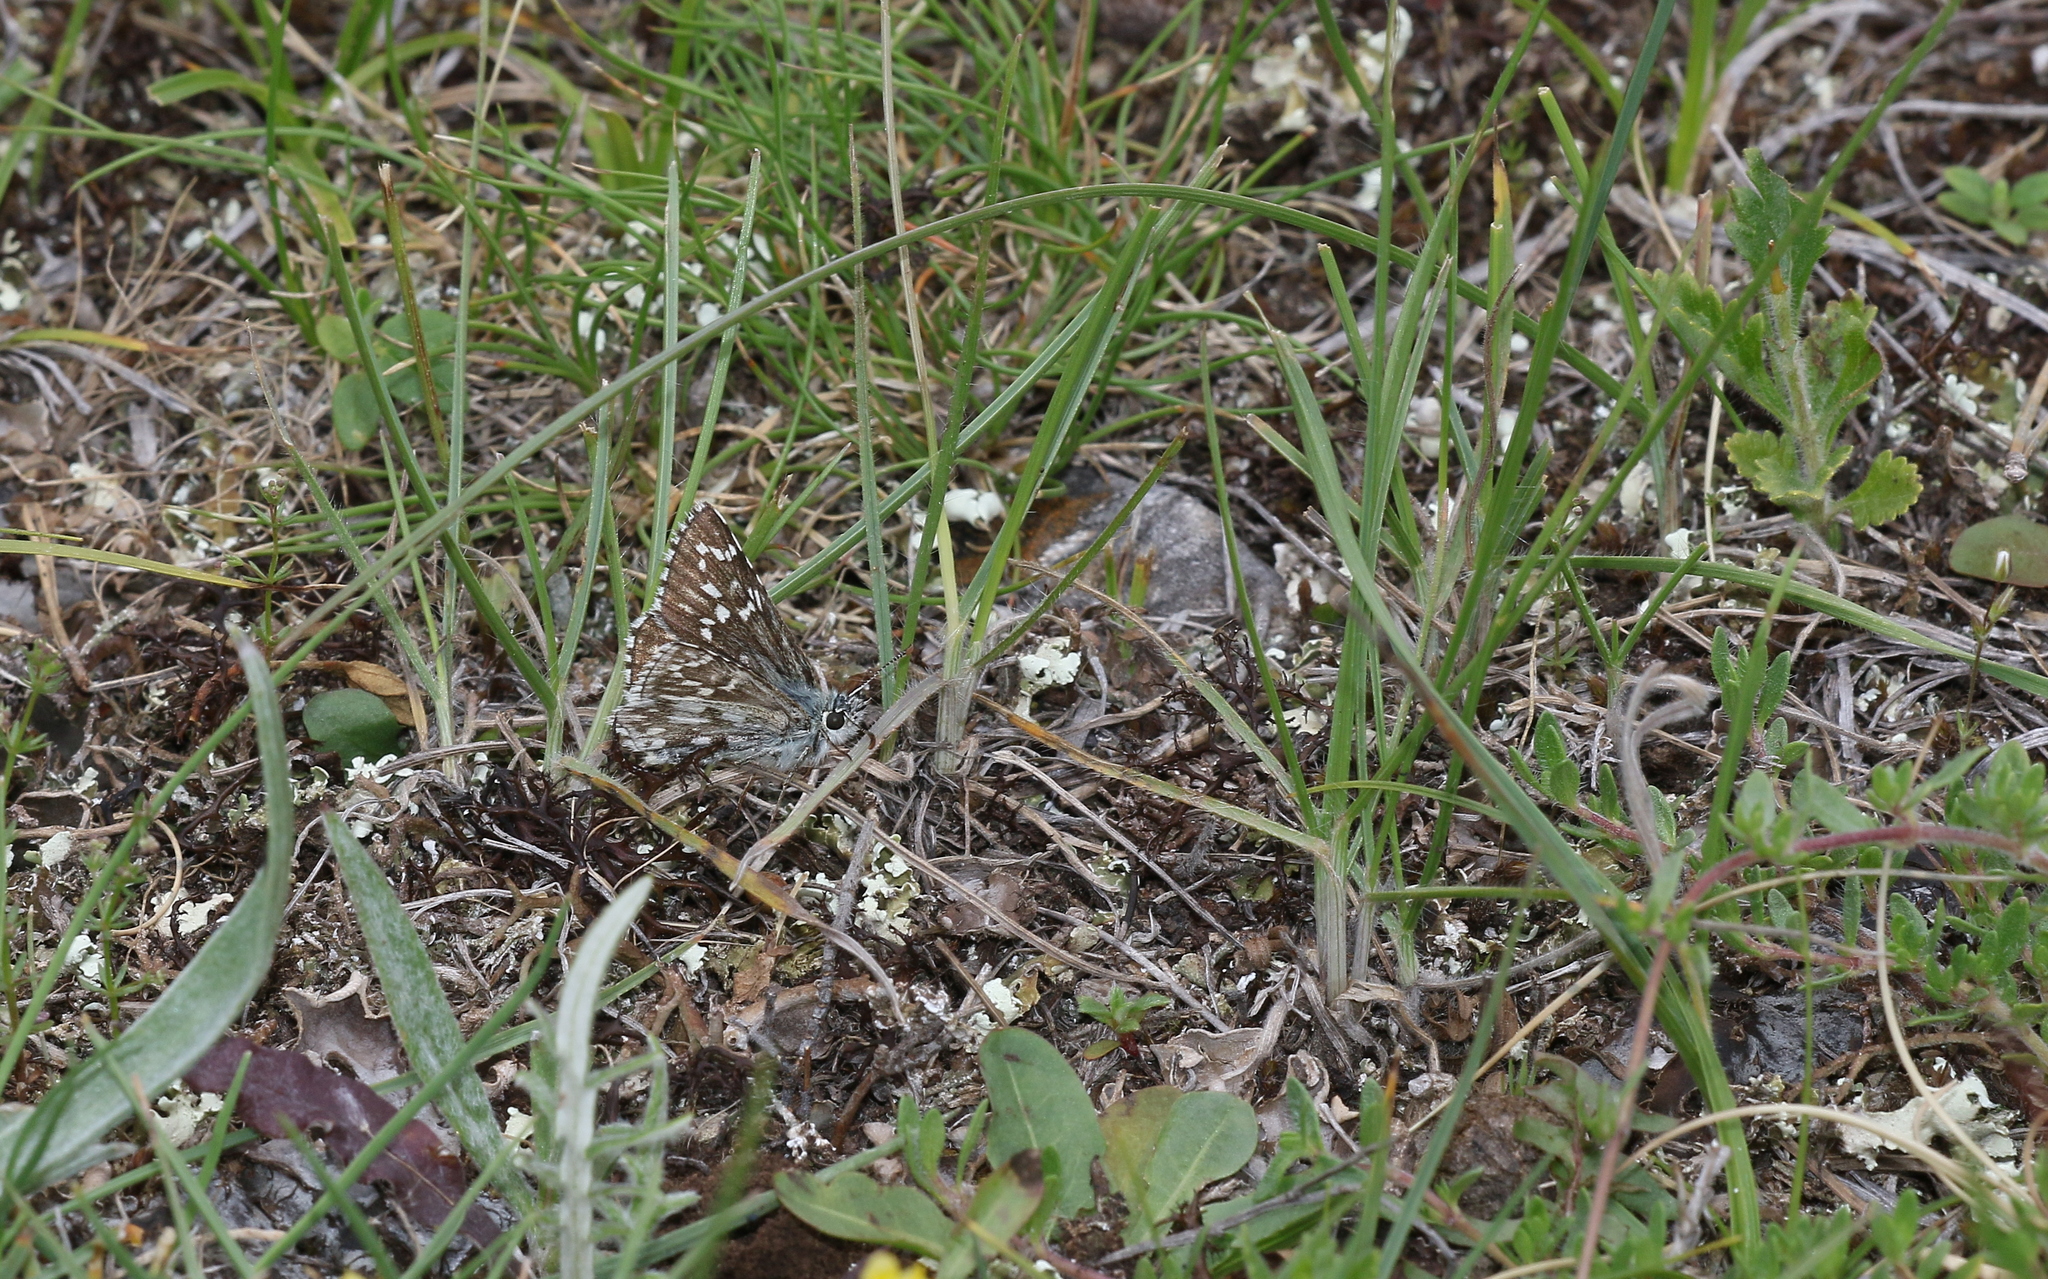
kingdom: Animalia
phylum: Arthropoda
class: Insecta
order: Lepidoptera
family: Hesperiidae
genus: Pyrgus
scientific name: Pyrgus fritillarius
